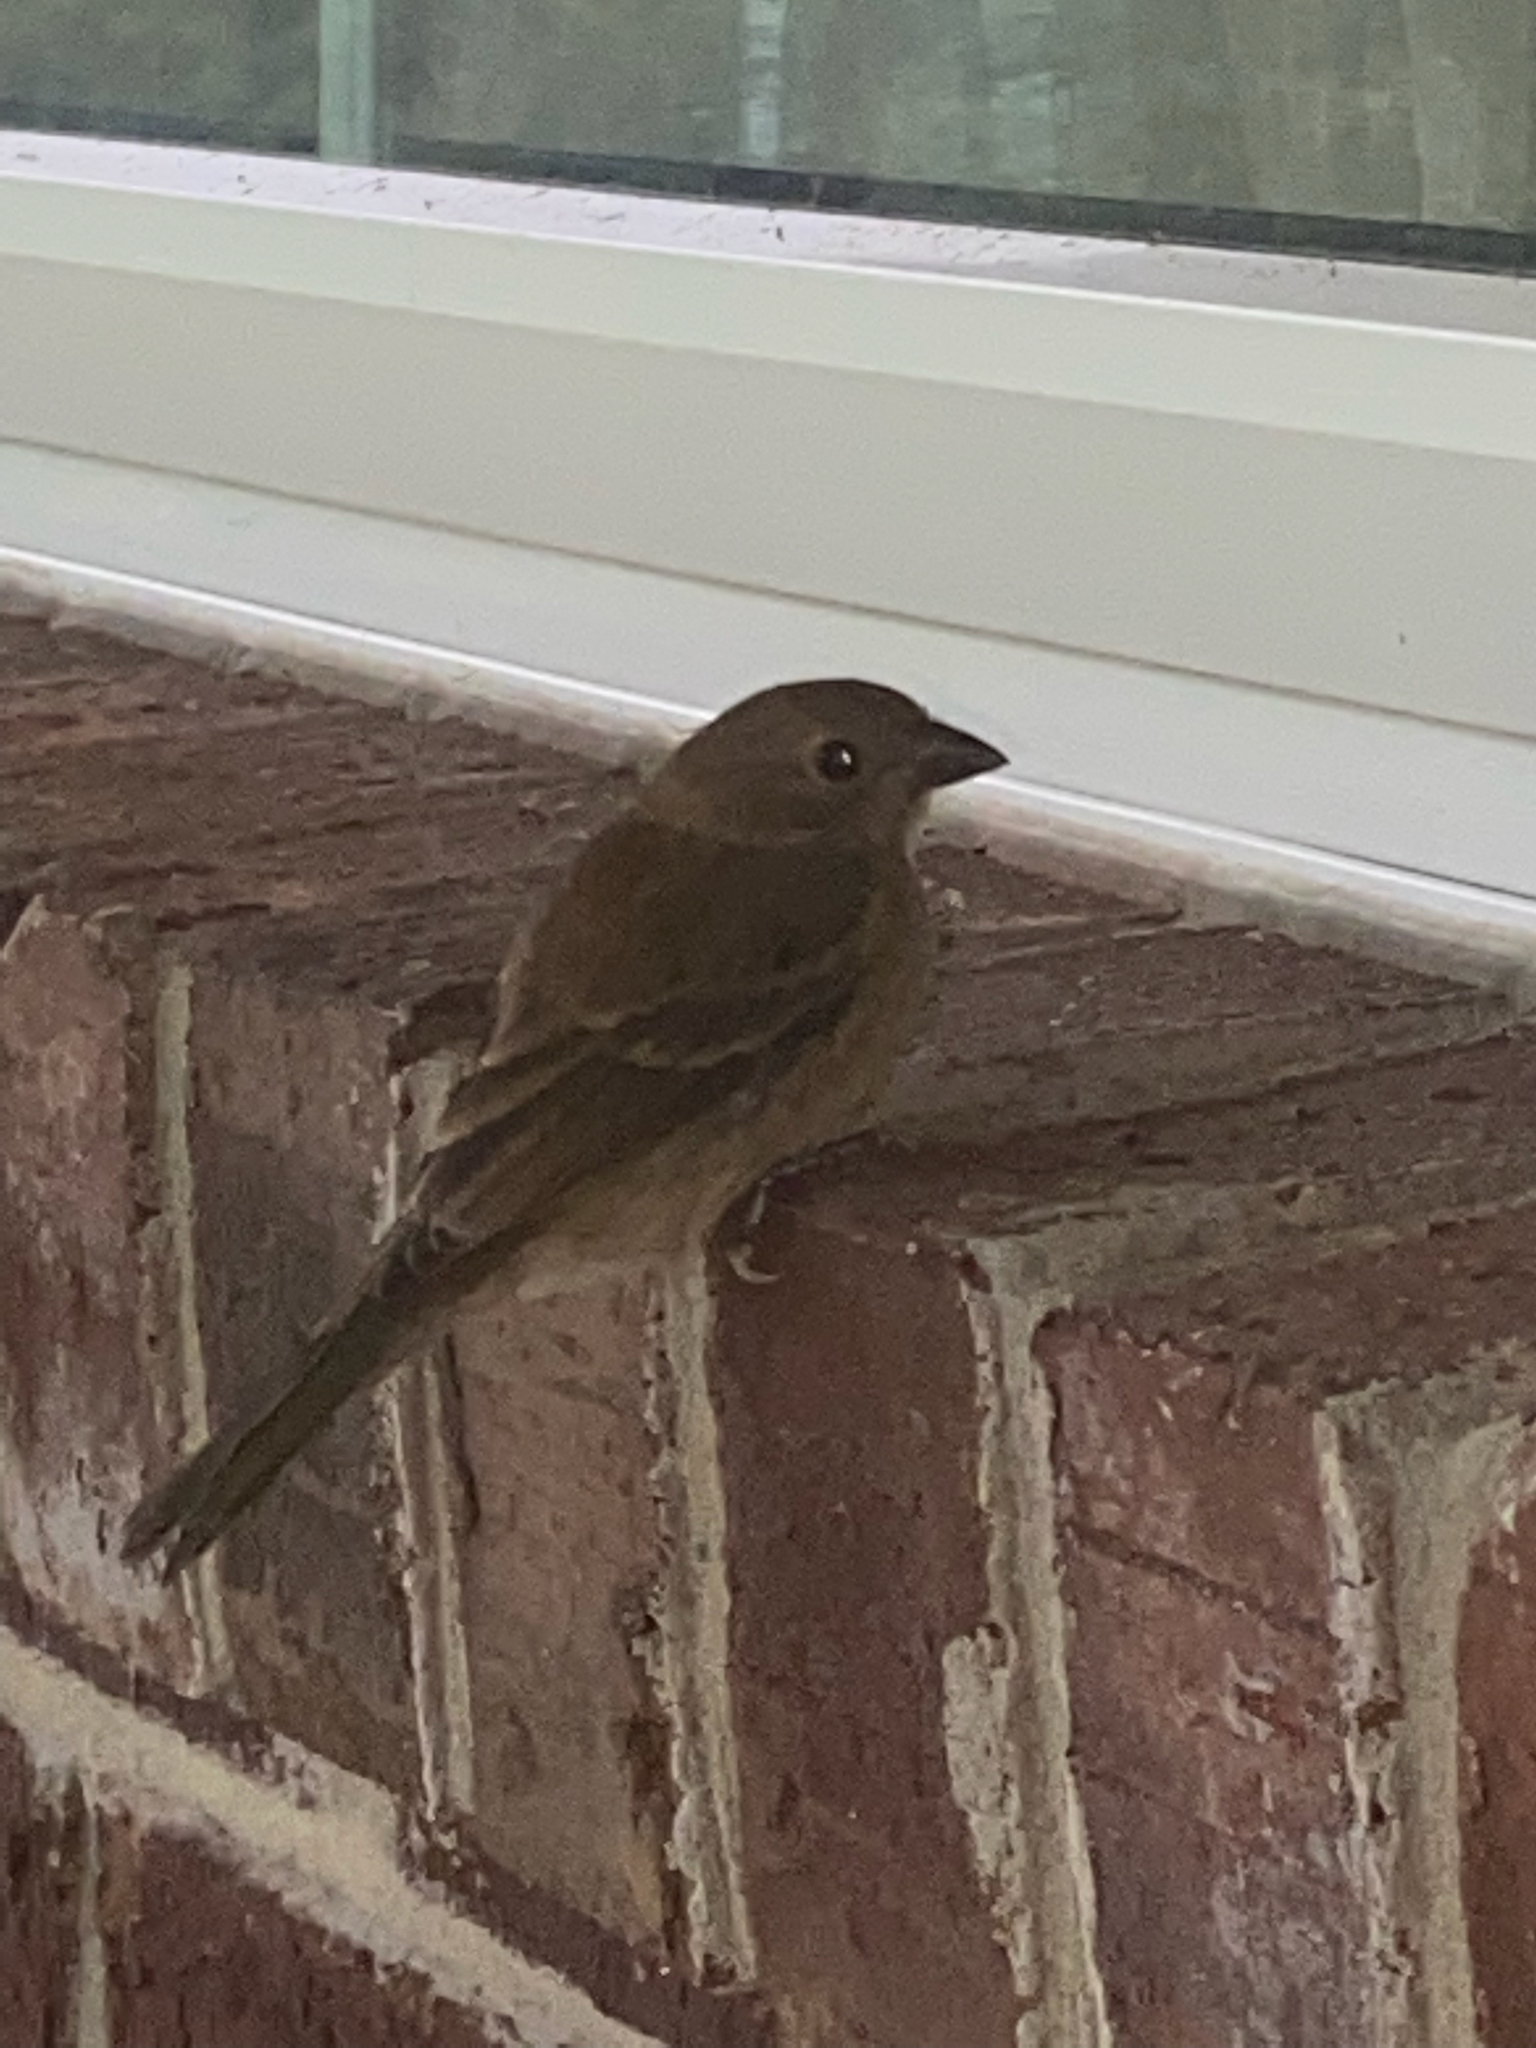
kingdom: Animalia
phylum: Chordata
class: Aves
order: Passeriformes
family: Cardinalidae
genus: Passerina
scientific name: Passerina cyanea
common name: Indigo bunting
